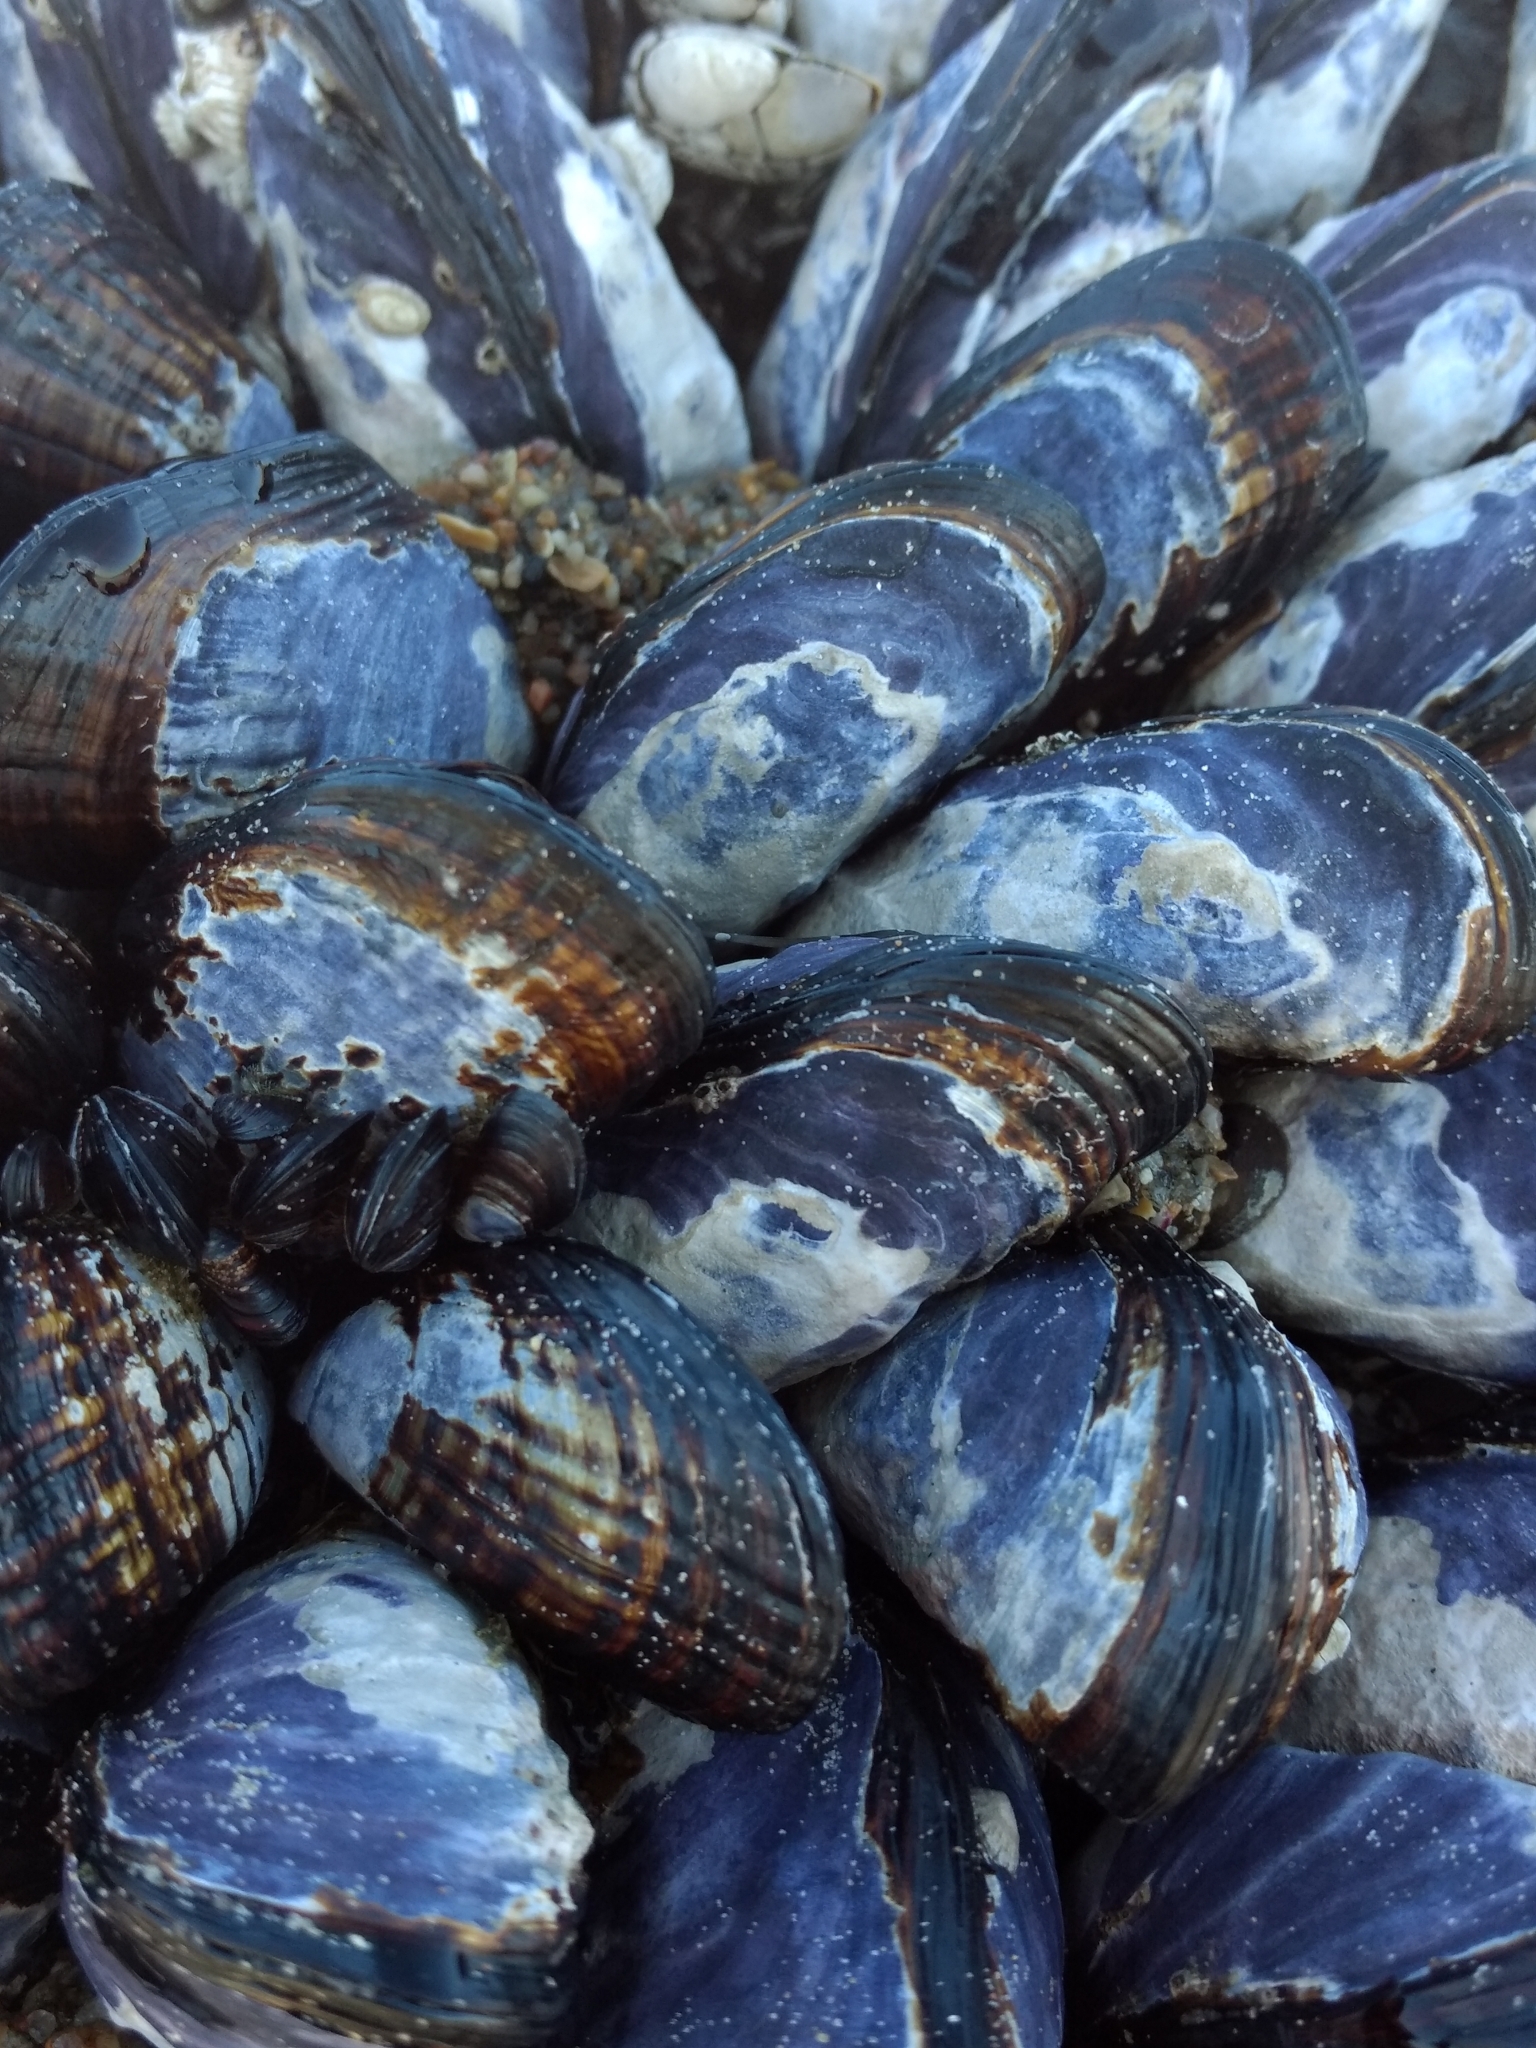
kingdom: Animalia
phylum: Mollusca
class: Bivalvia
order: Mytilida
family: Mytilidae
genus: Mytilus
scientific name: Mytilus californianus
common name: California mussel
